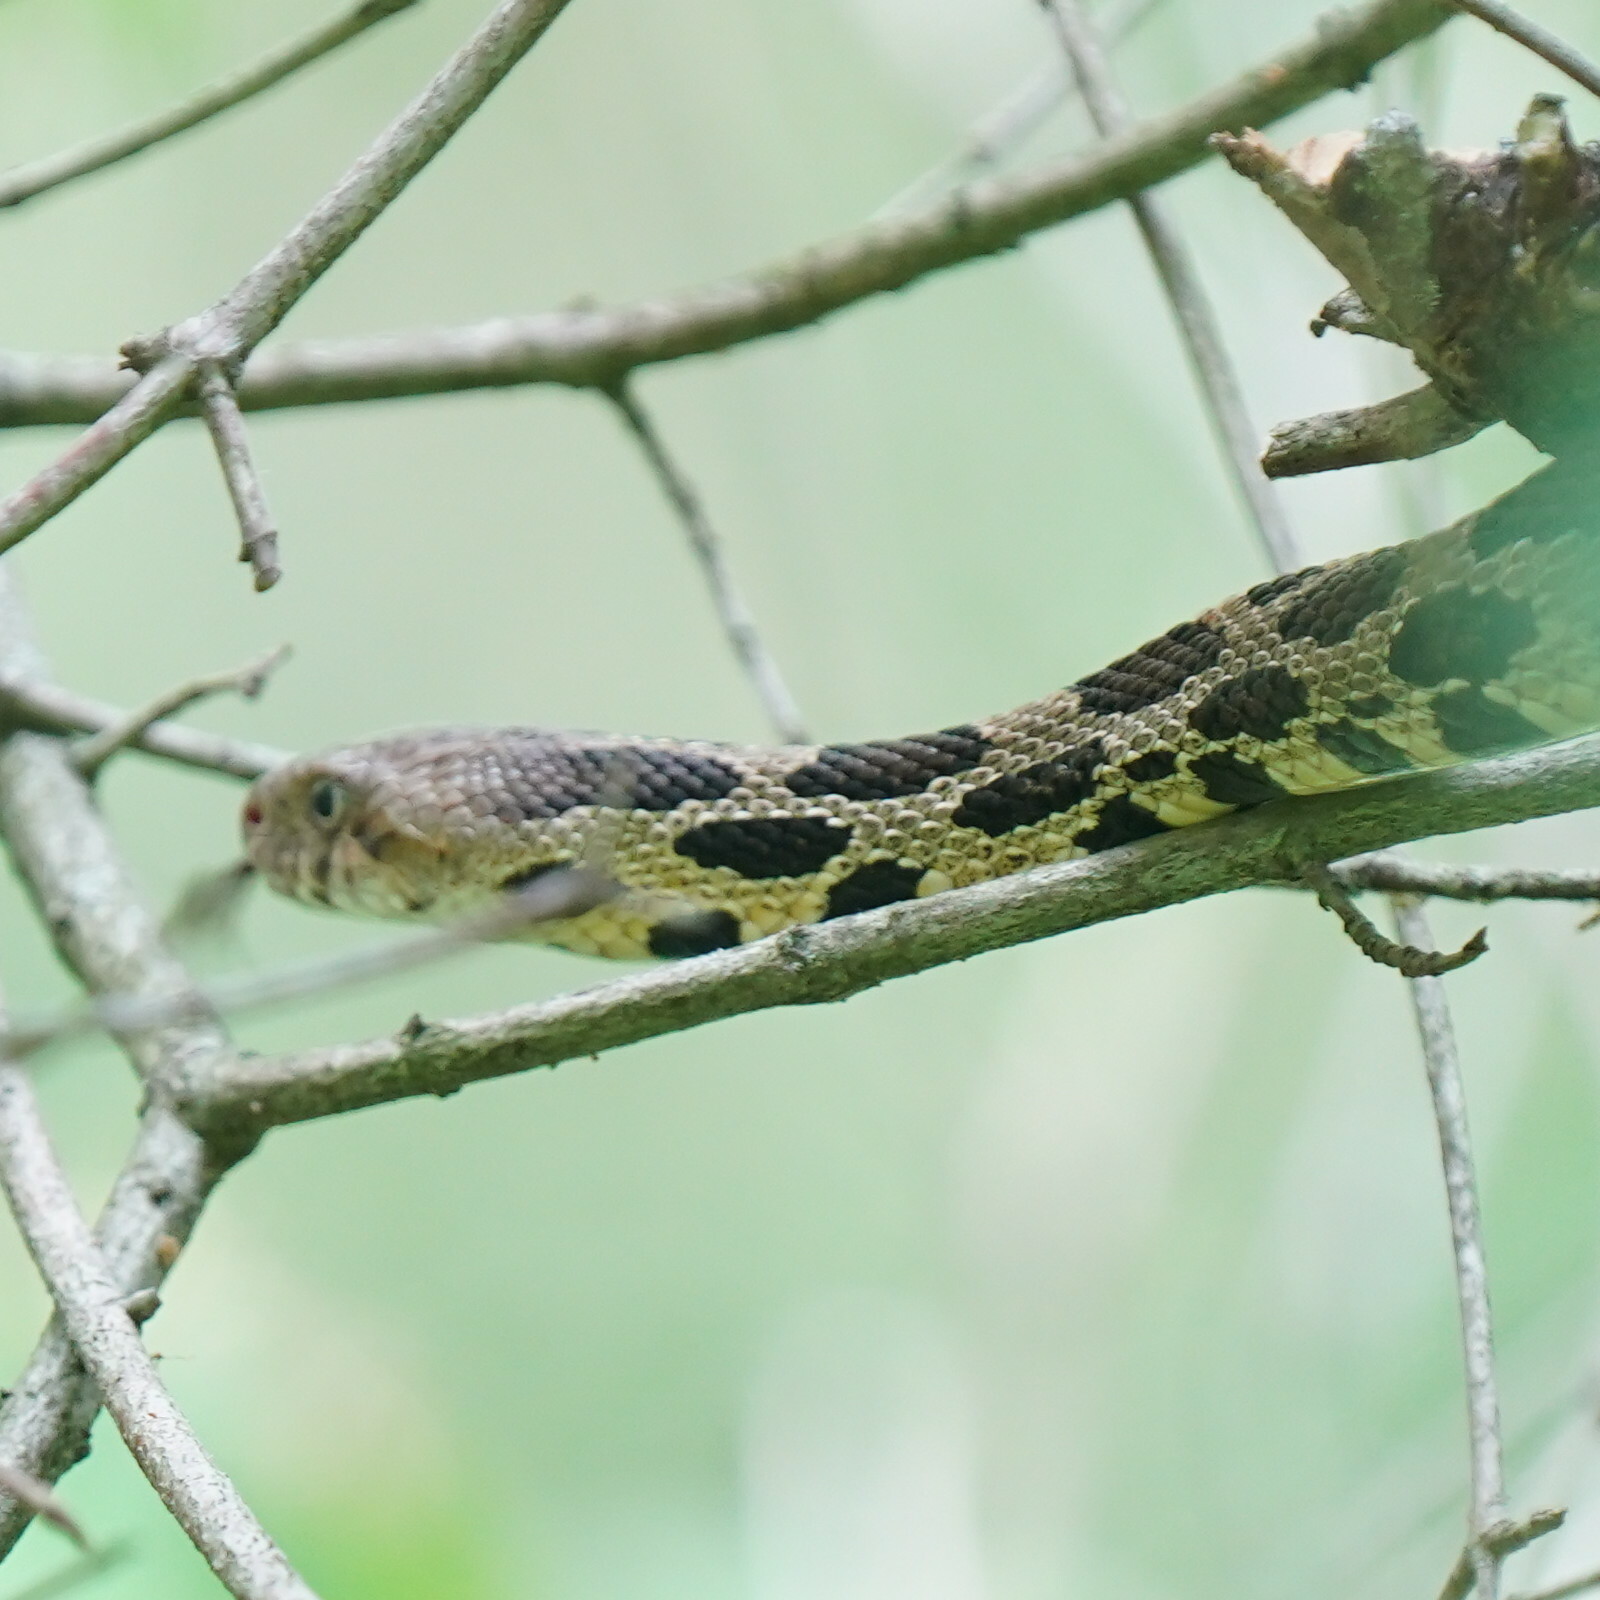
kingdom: Animalia
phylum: Chordata
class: Squamata
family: Colubridae
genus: Pantherophis
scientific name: Pantherophis vulpinus
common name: Eastern fox snake
